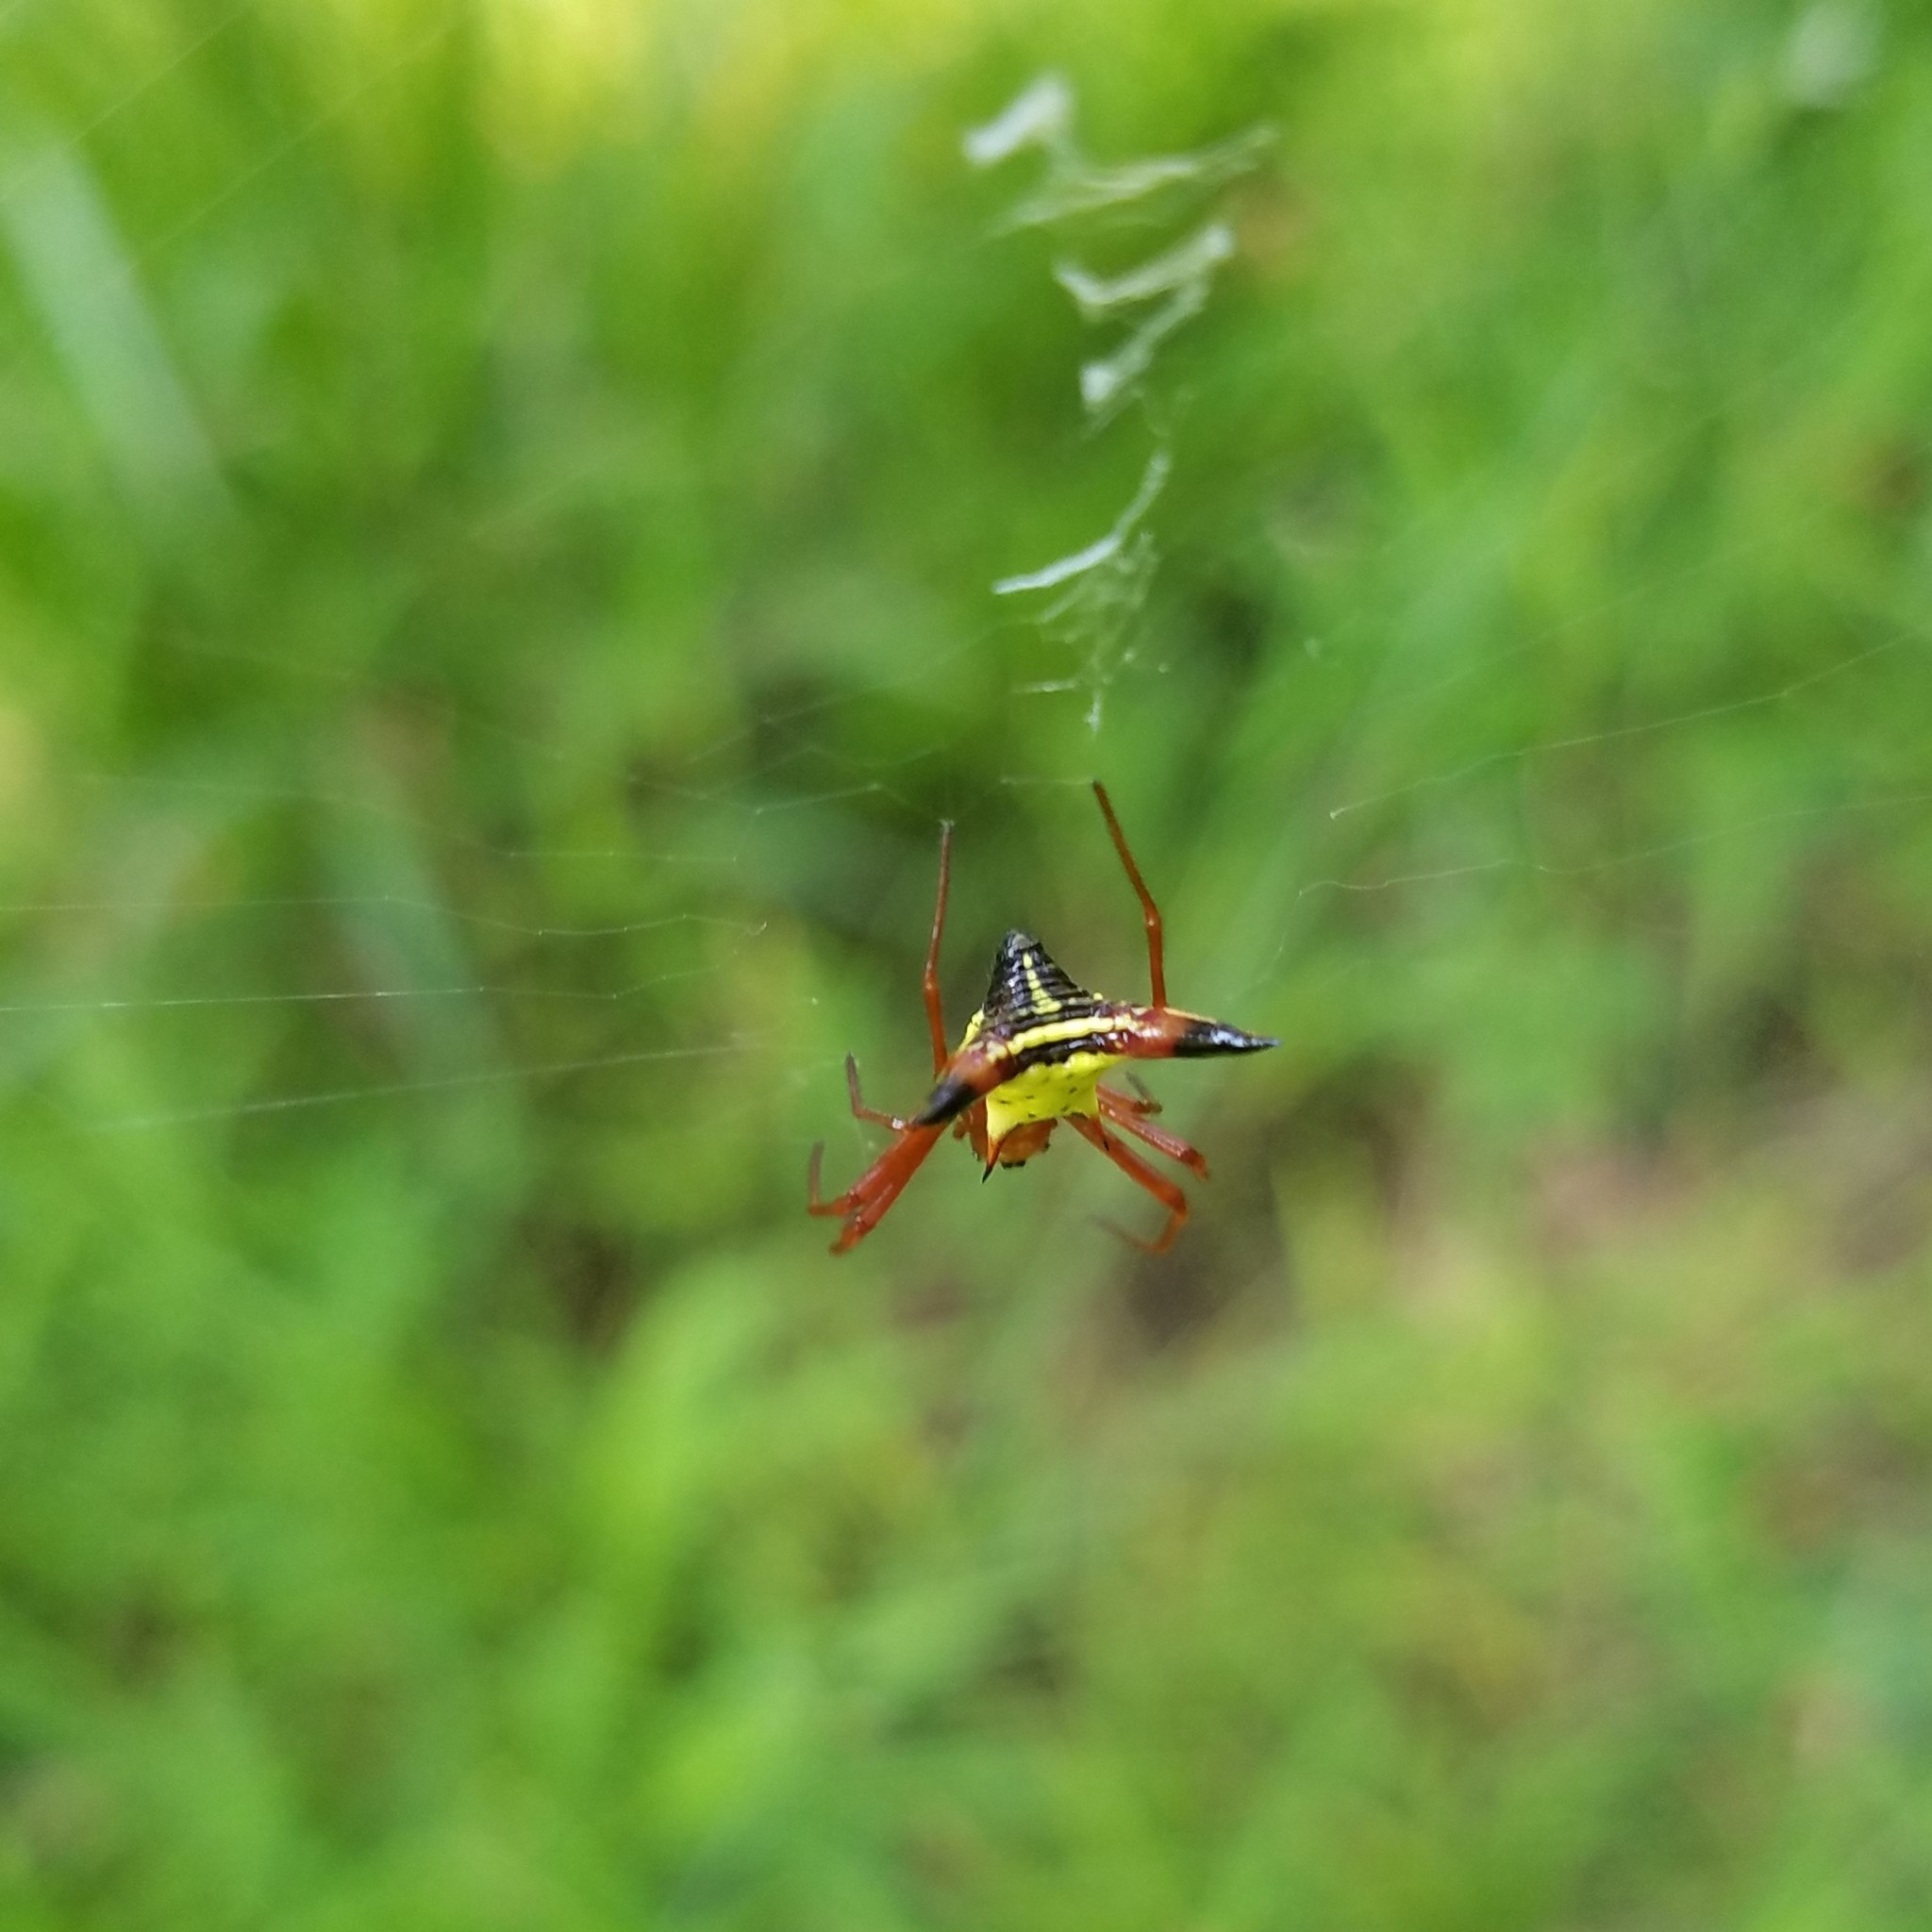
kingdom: Animalia
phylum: Arthropoda
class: Arachnida
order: Araneae
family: Araneidae
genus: Micrathena
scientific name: Micrathena sagittata
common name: Orb weavers
